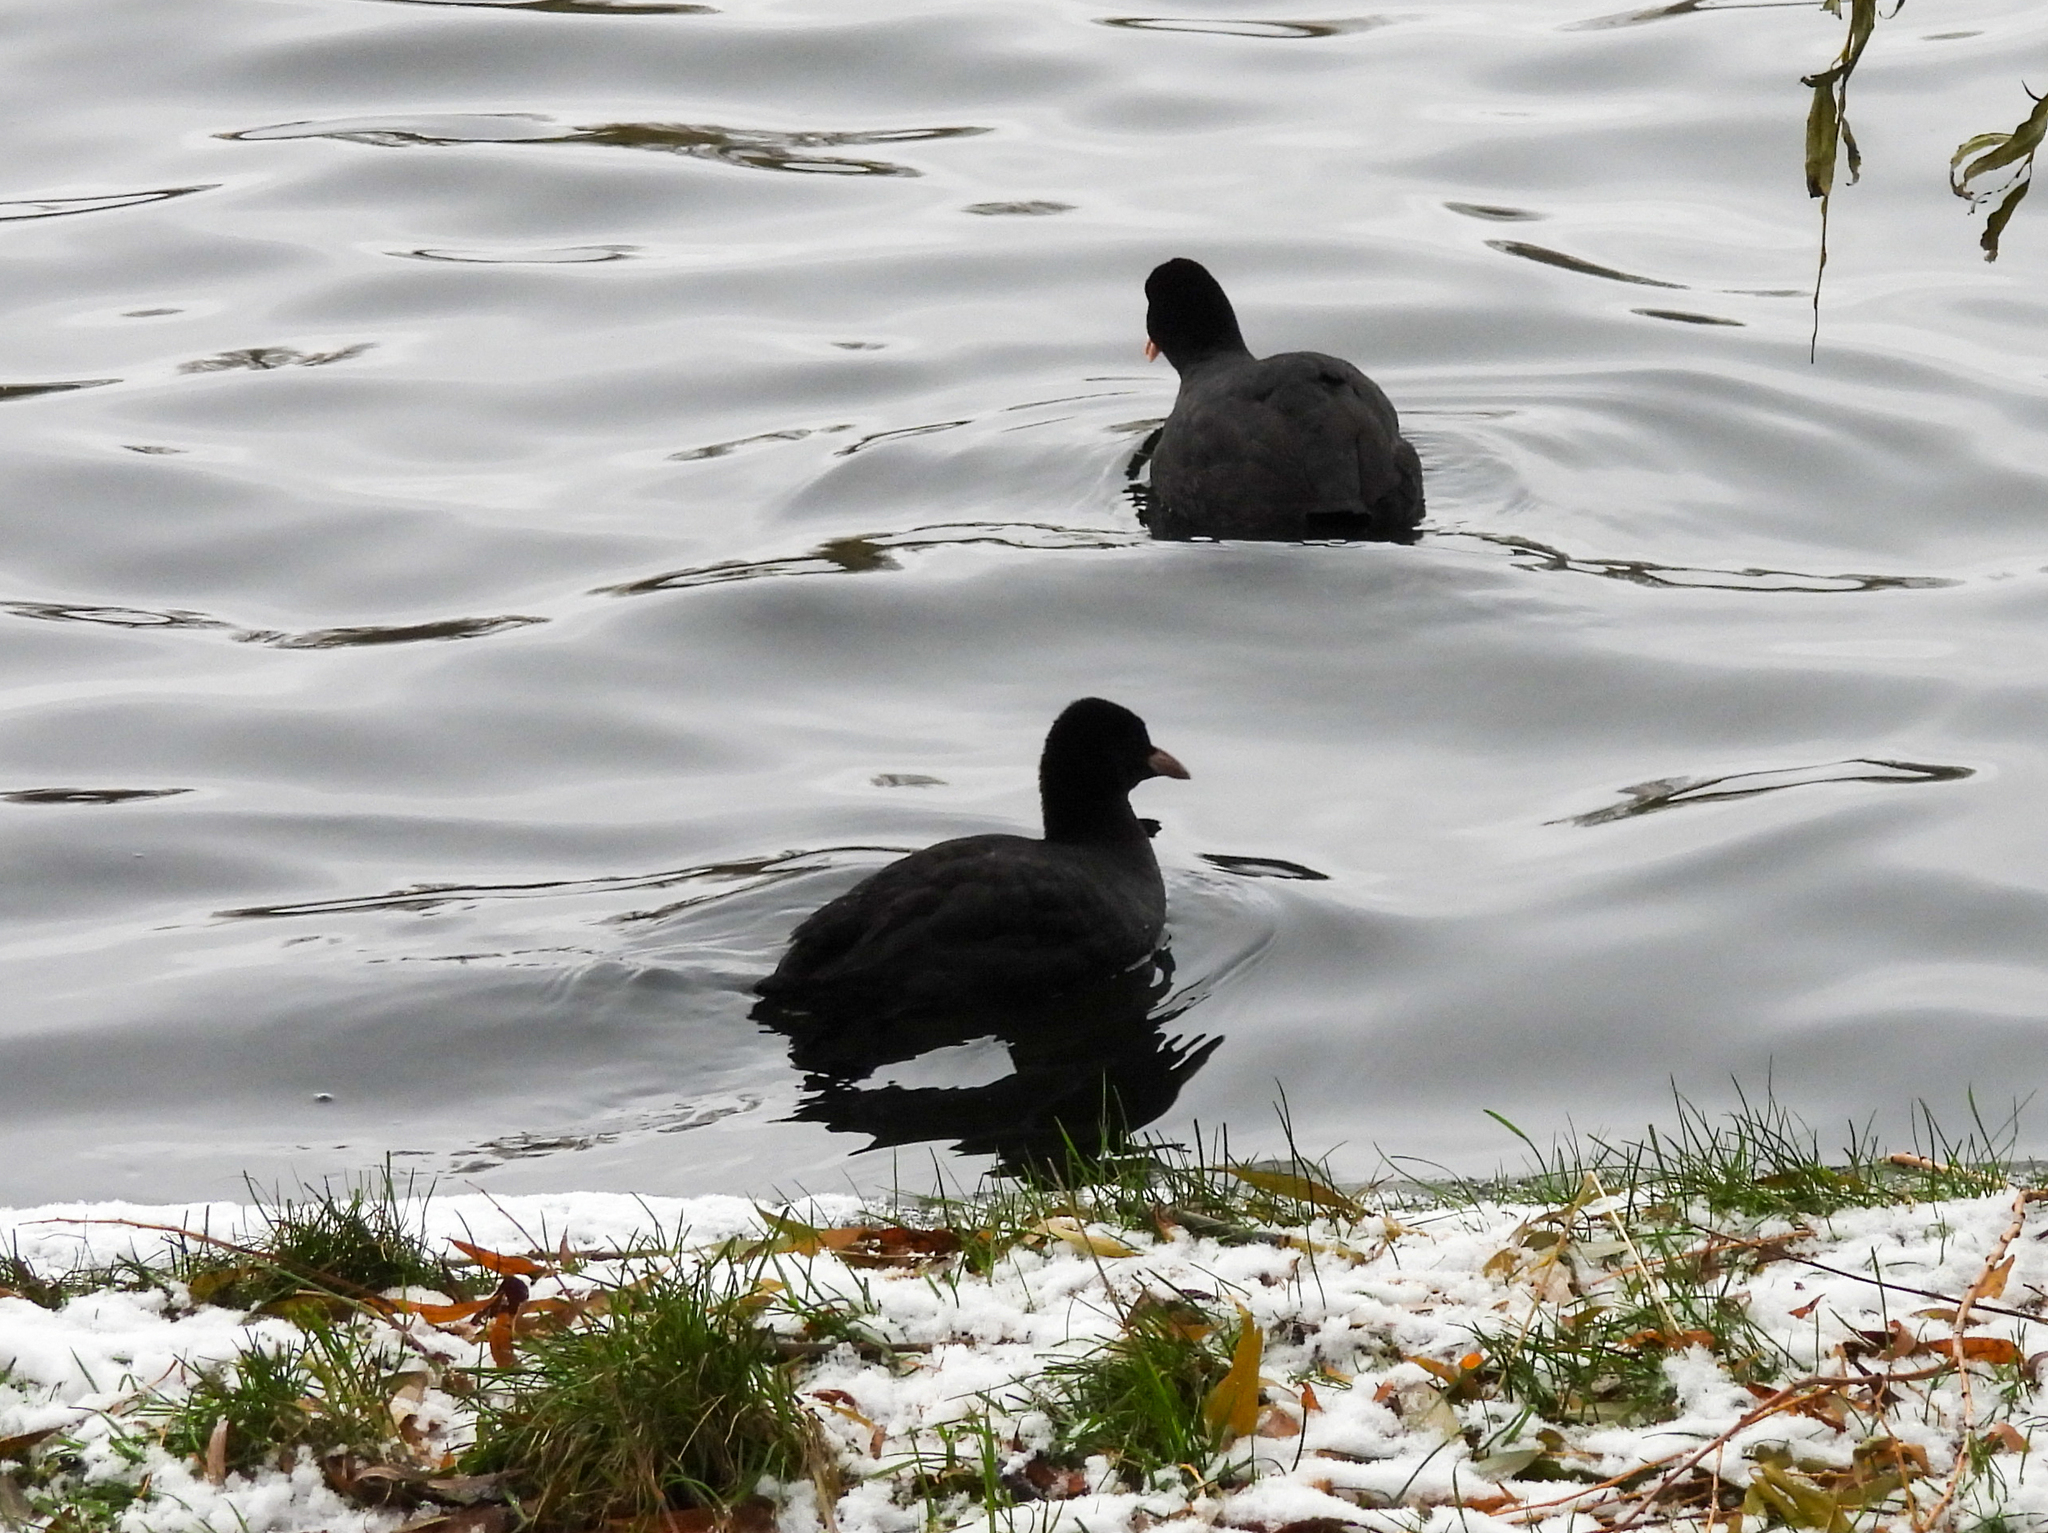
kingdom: Animalia
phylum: Chordata
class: Aves
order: Gruiformes
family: Rallidae
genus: Fulica
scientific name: Fulica atra
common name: Eurasian coot
